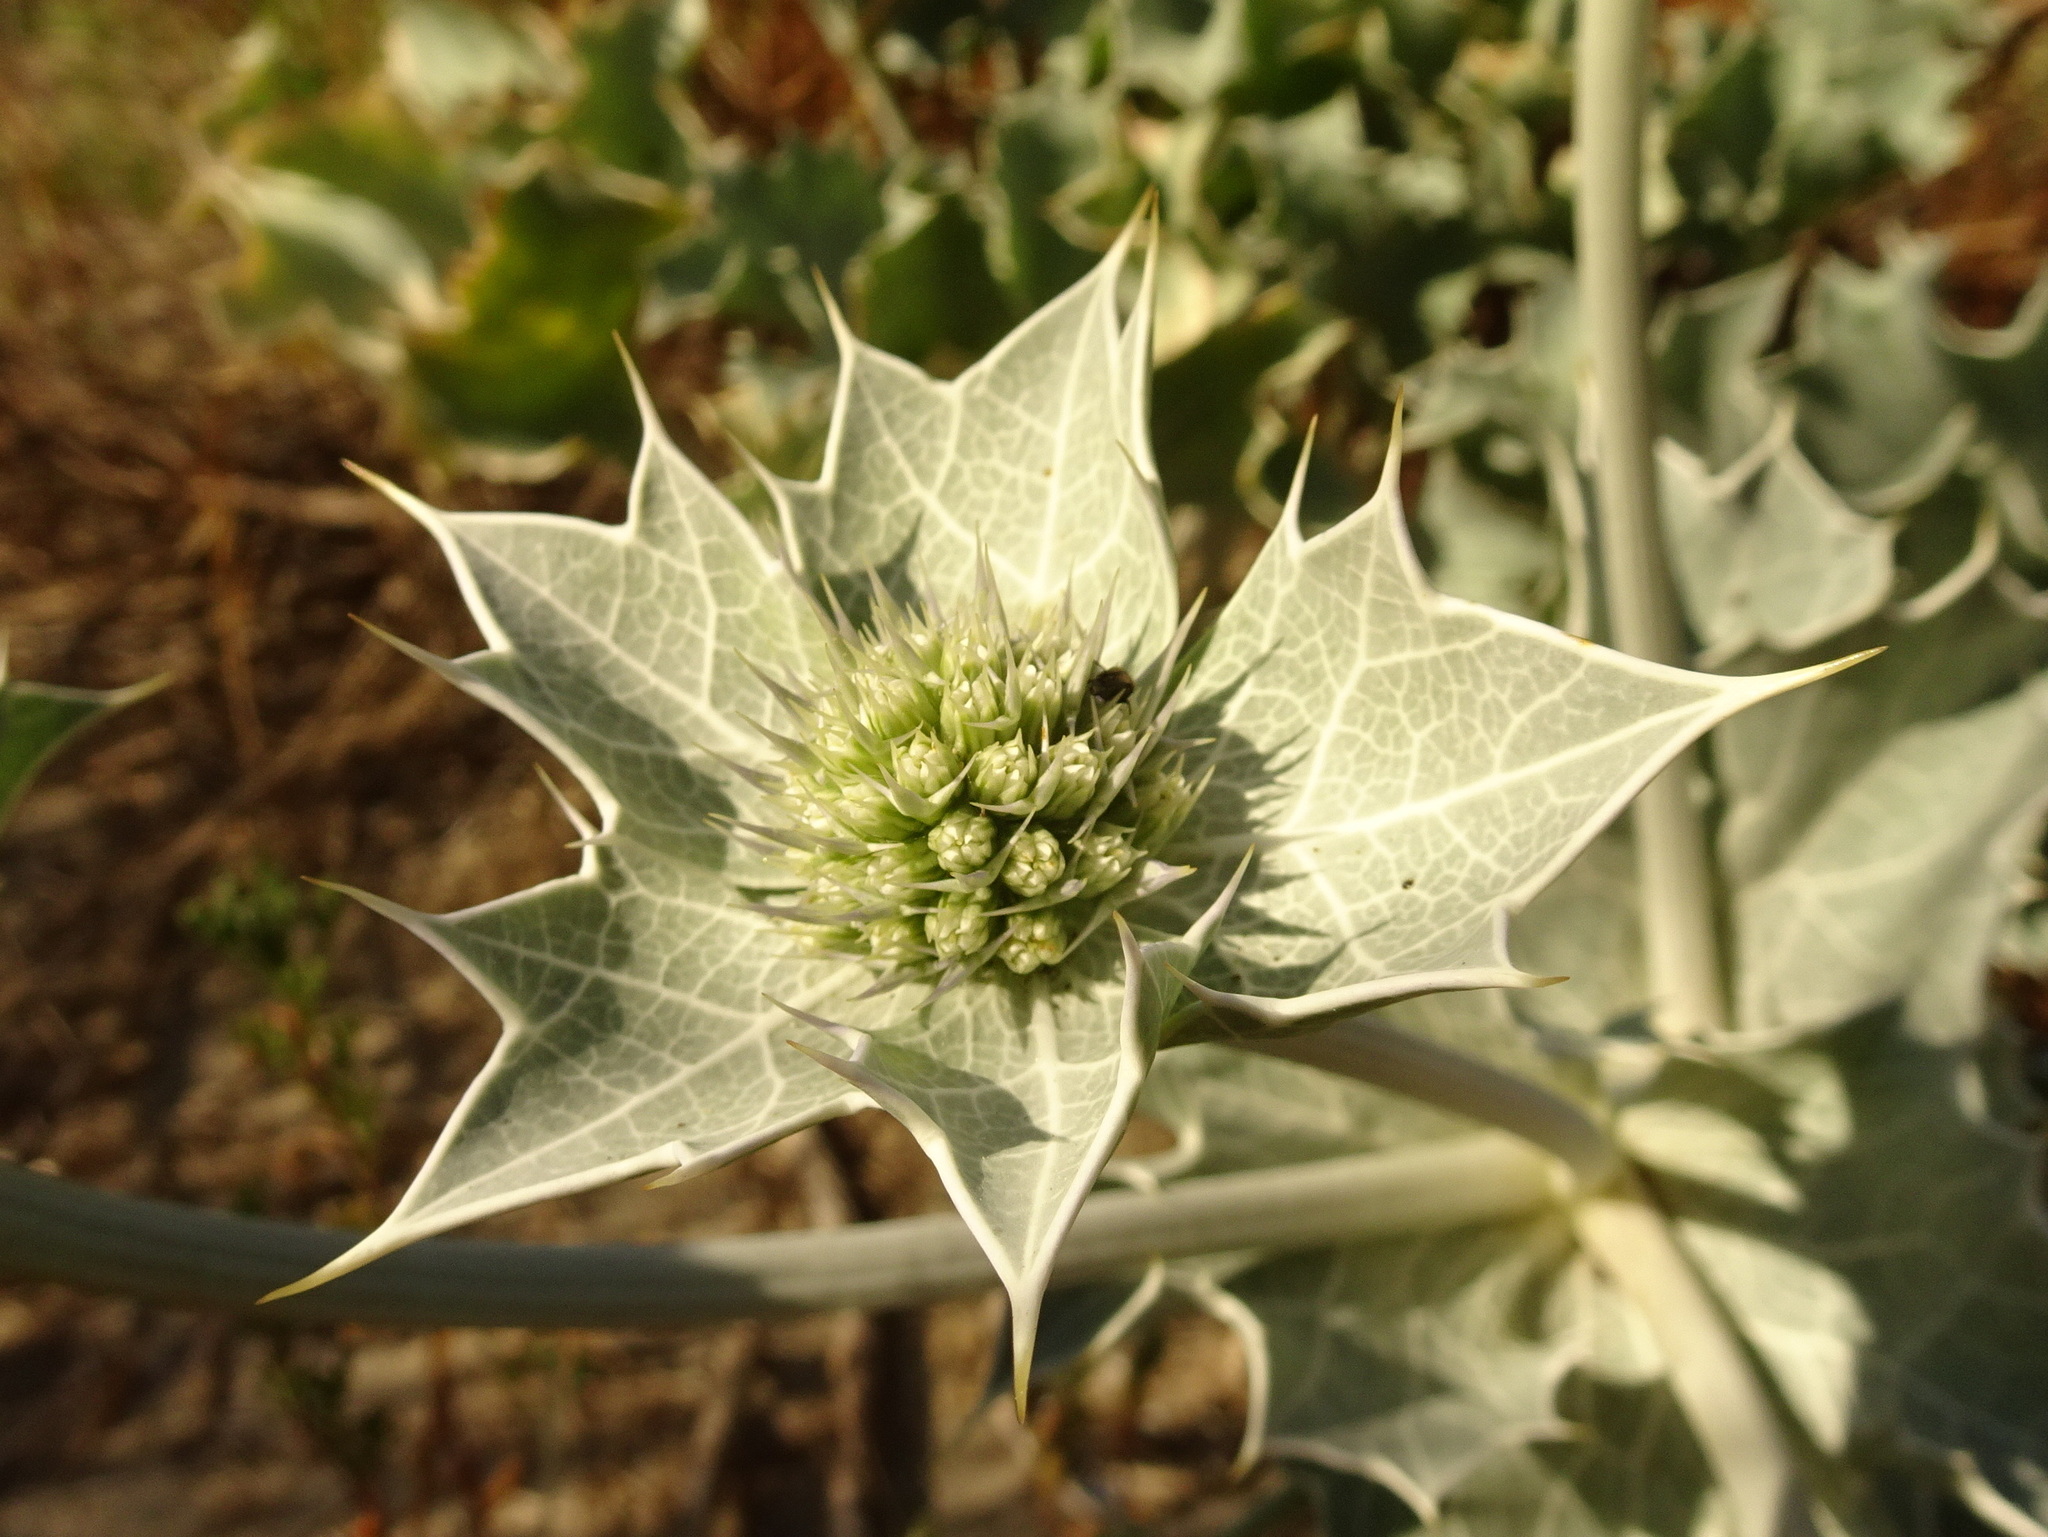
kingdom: Plantae
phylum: Tracheophyta
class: Magnoliopsida
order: Apiales
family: Apiaceae
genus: Eryngium
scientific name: Eryngium maritimum
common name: Sea-holly
